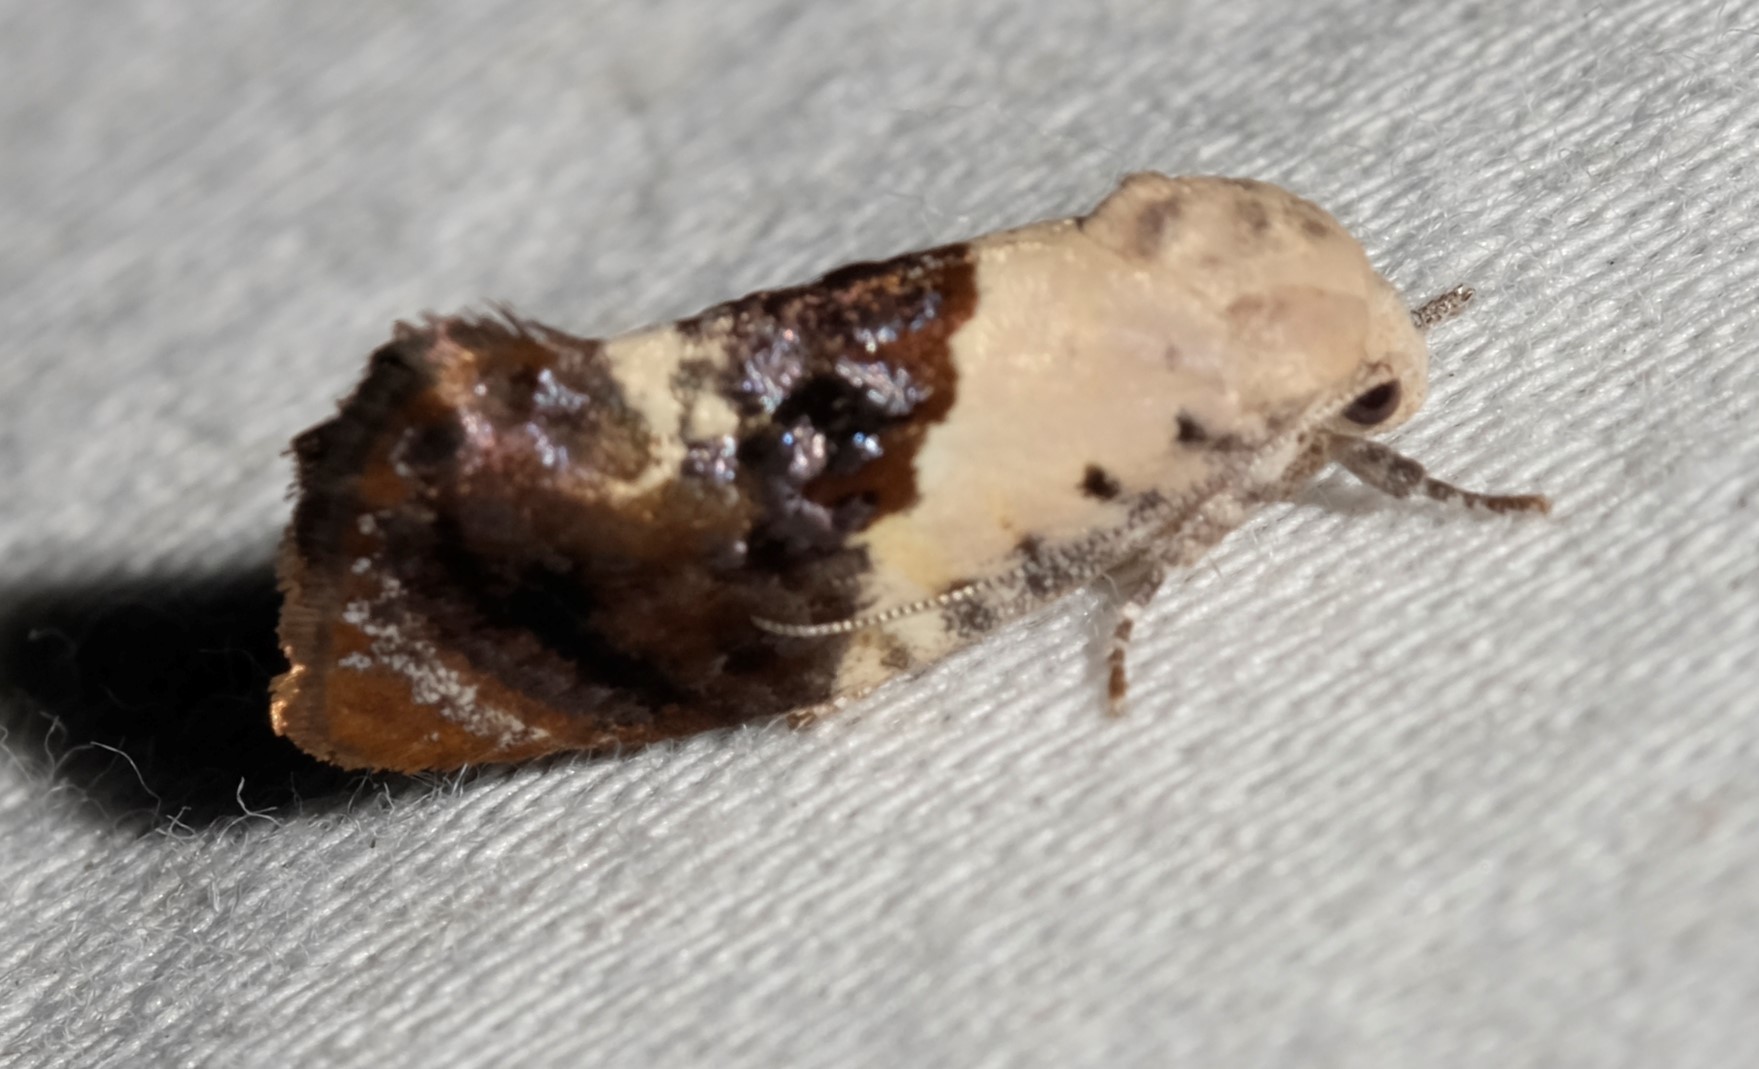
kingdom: Animalia
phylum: Arthropoda
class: Insecta
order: Lepidoptera
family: Depressariidae
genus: Hypertropha
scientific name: Hypertropha chlaenota
